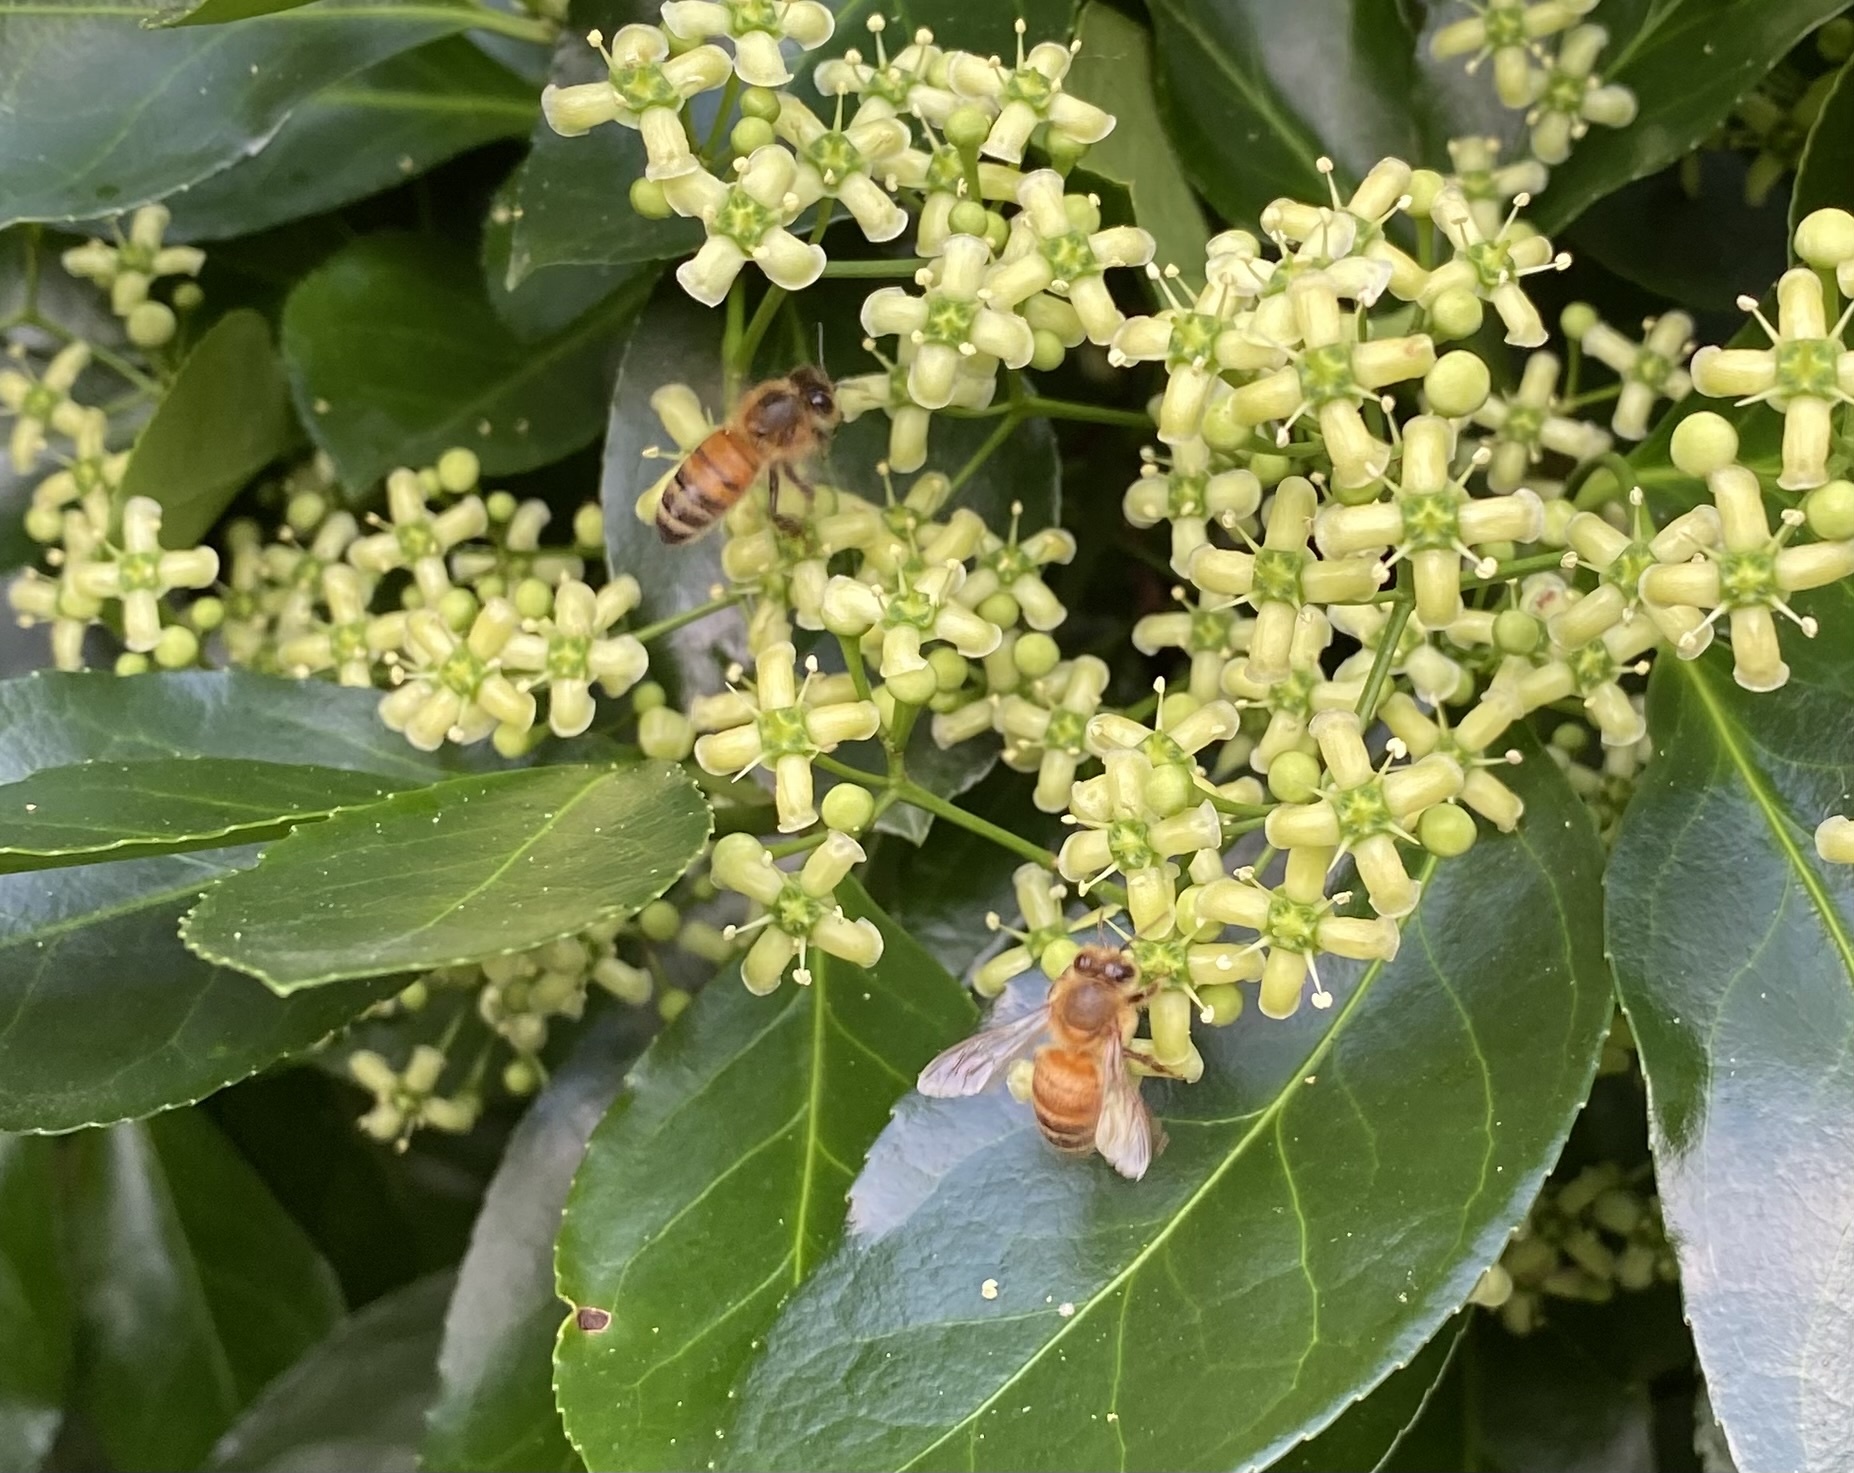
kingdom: Animalia
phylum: Arthropoda
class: Insecta
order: Hymenoptera
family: Apidae
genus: Apis
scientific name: Apis mellifera
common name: Honey bee
